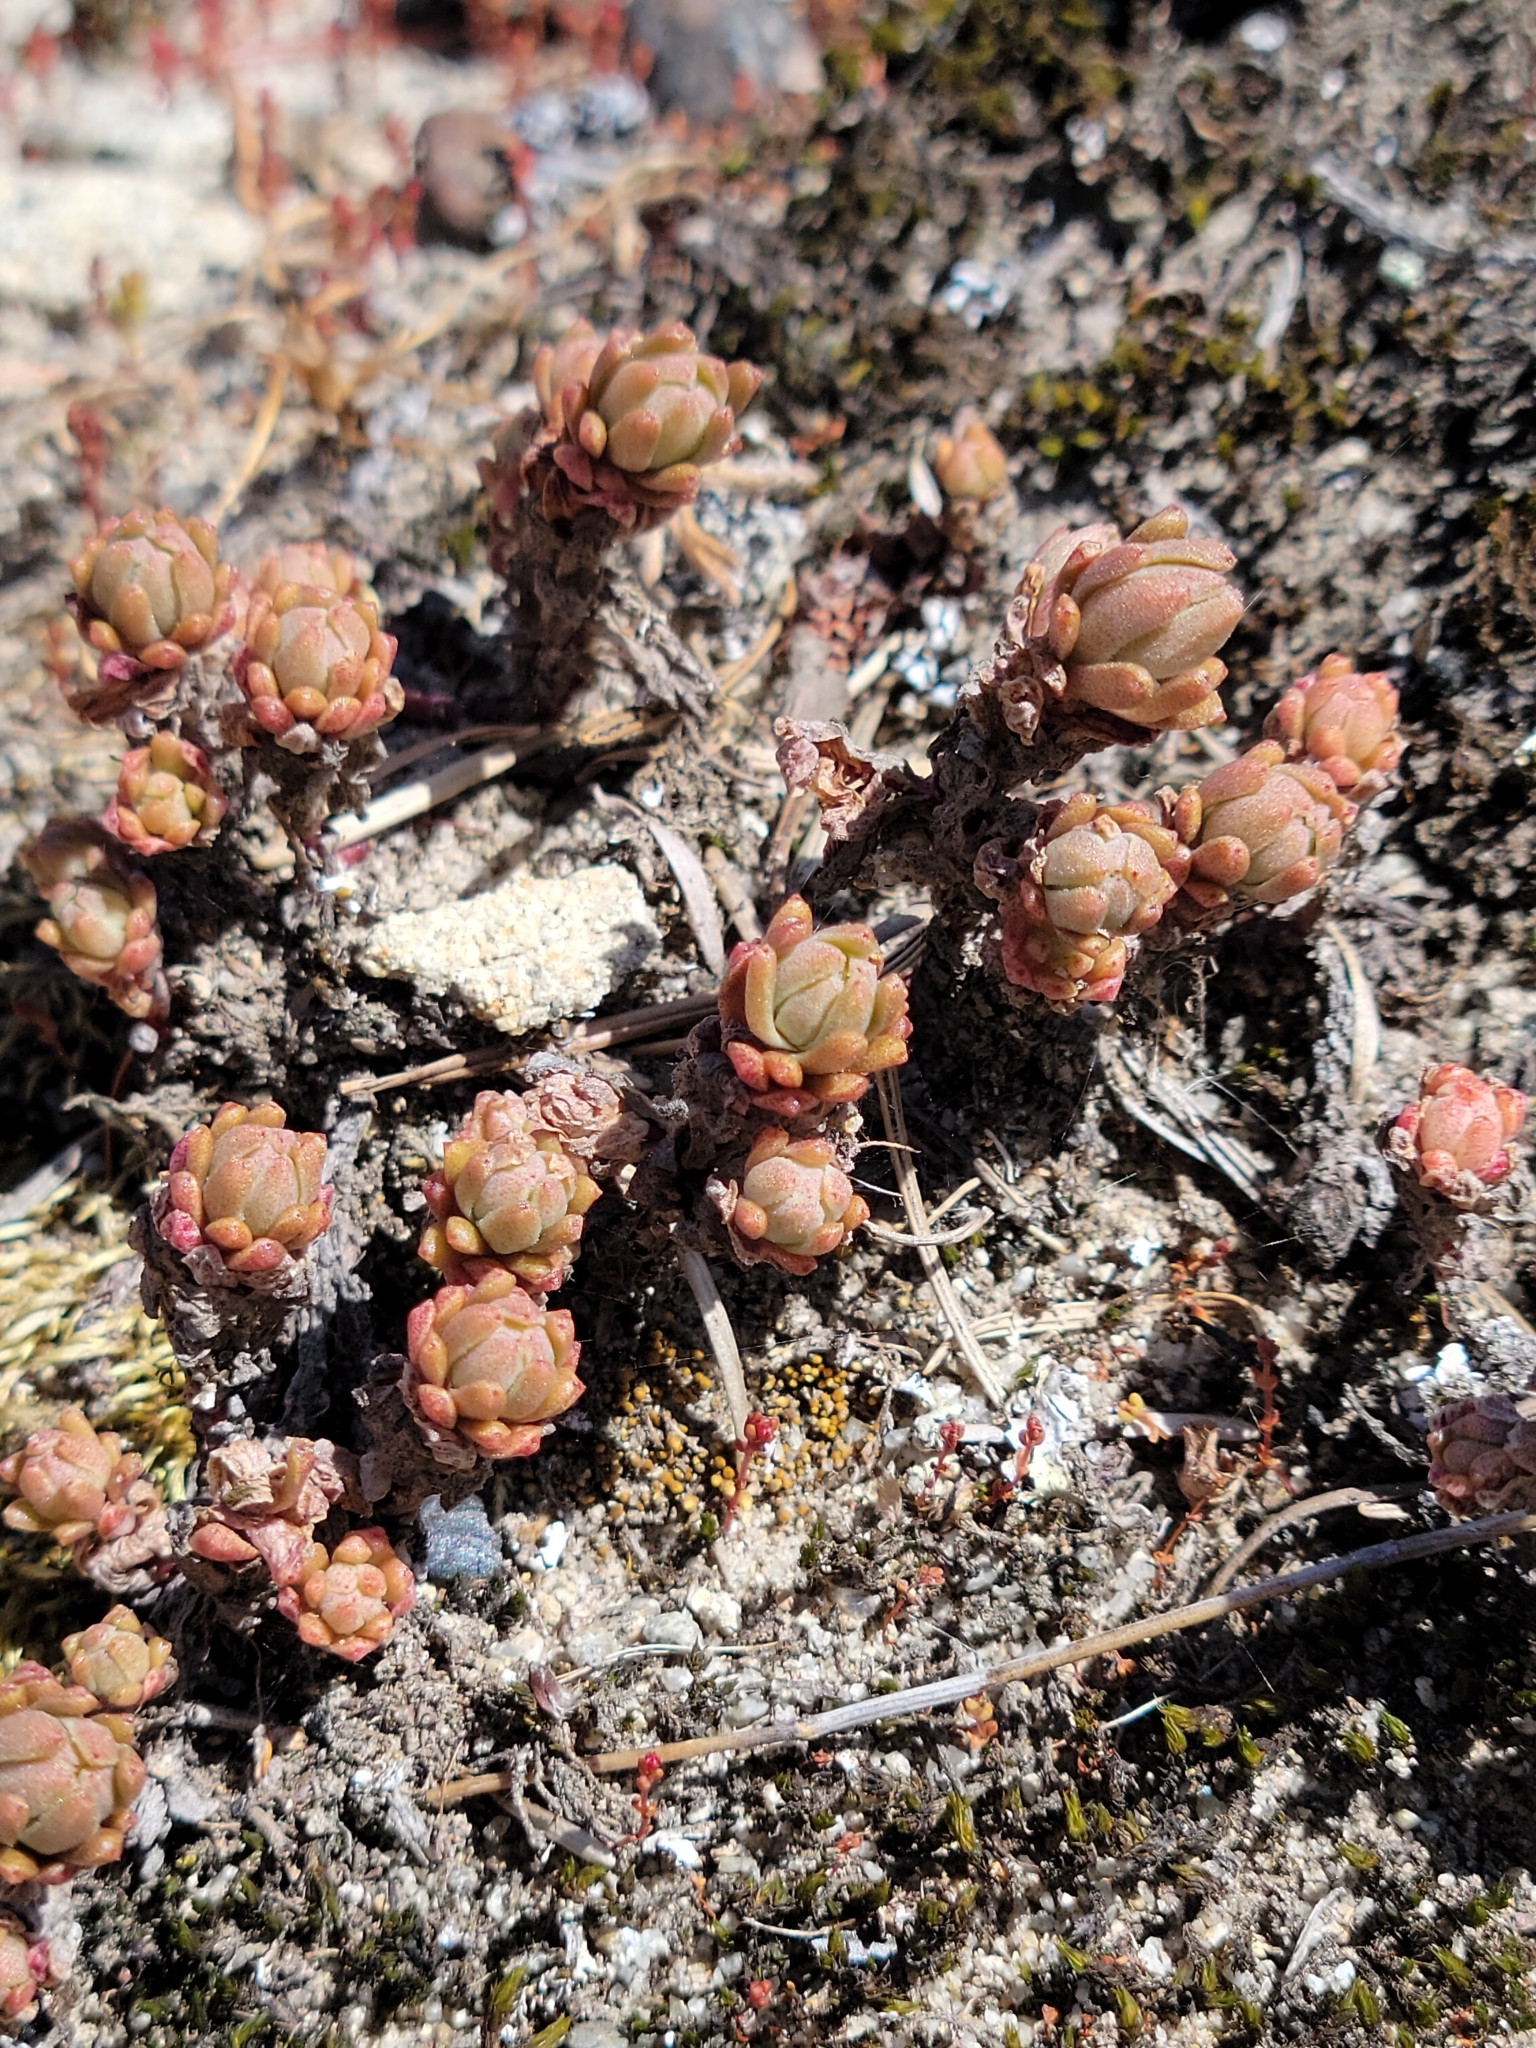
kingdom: Plantae
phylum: Tracheophyta
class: Magnoliopsida
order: Saxifragales
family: Crassulaceae
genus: Sedum
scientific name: Sedum radiatum
